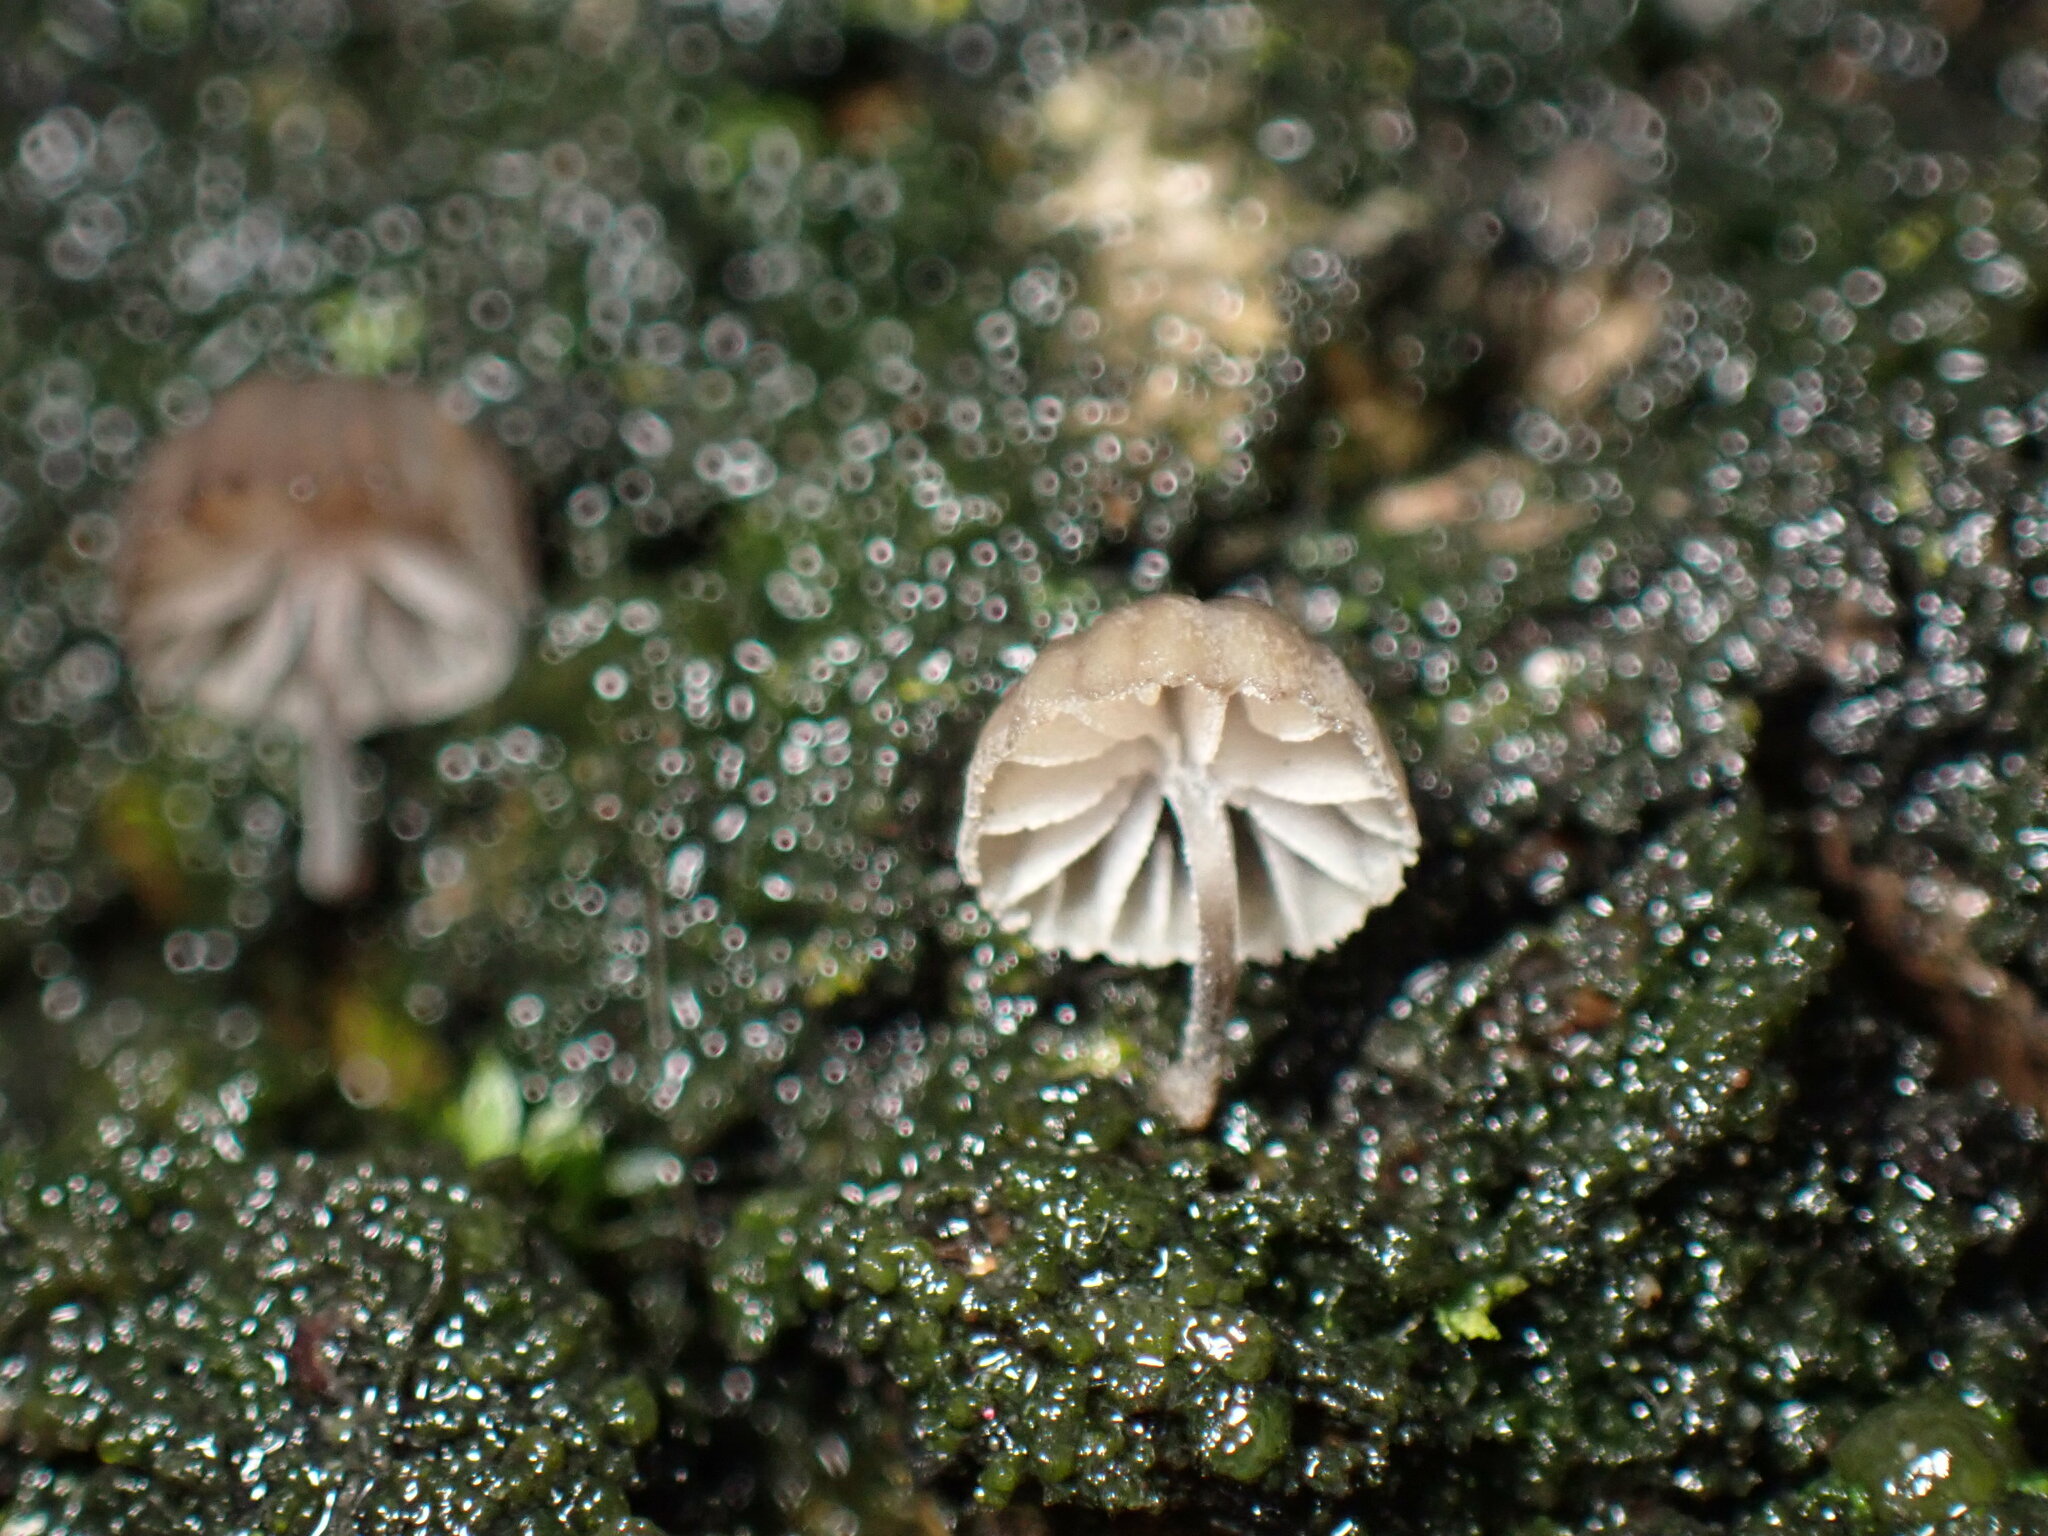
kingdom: Fungi
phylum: Basidiomycota
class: Agaricomycetes
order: Agaricales
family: Mycenaceae
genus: Mycena
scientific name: Mycena corticola
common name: Bark mycena
